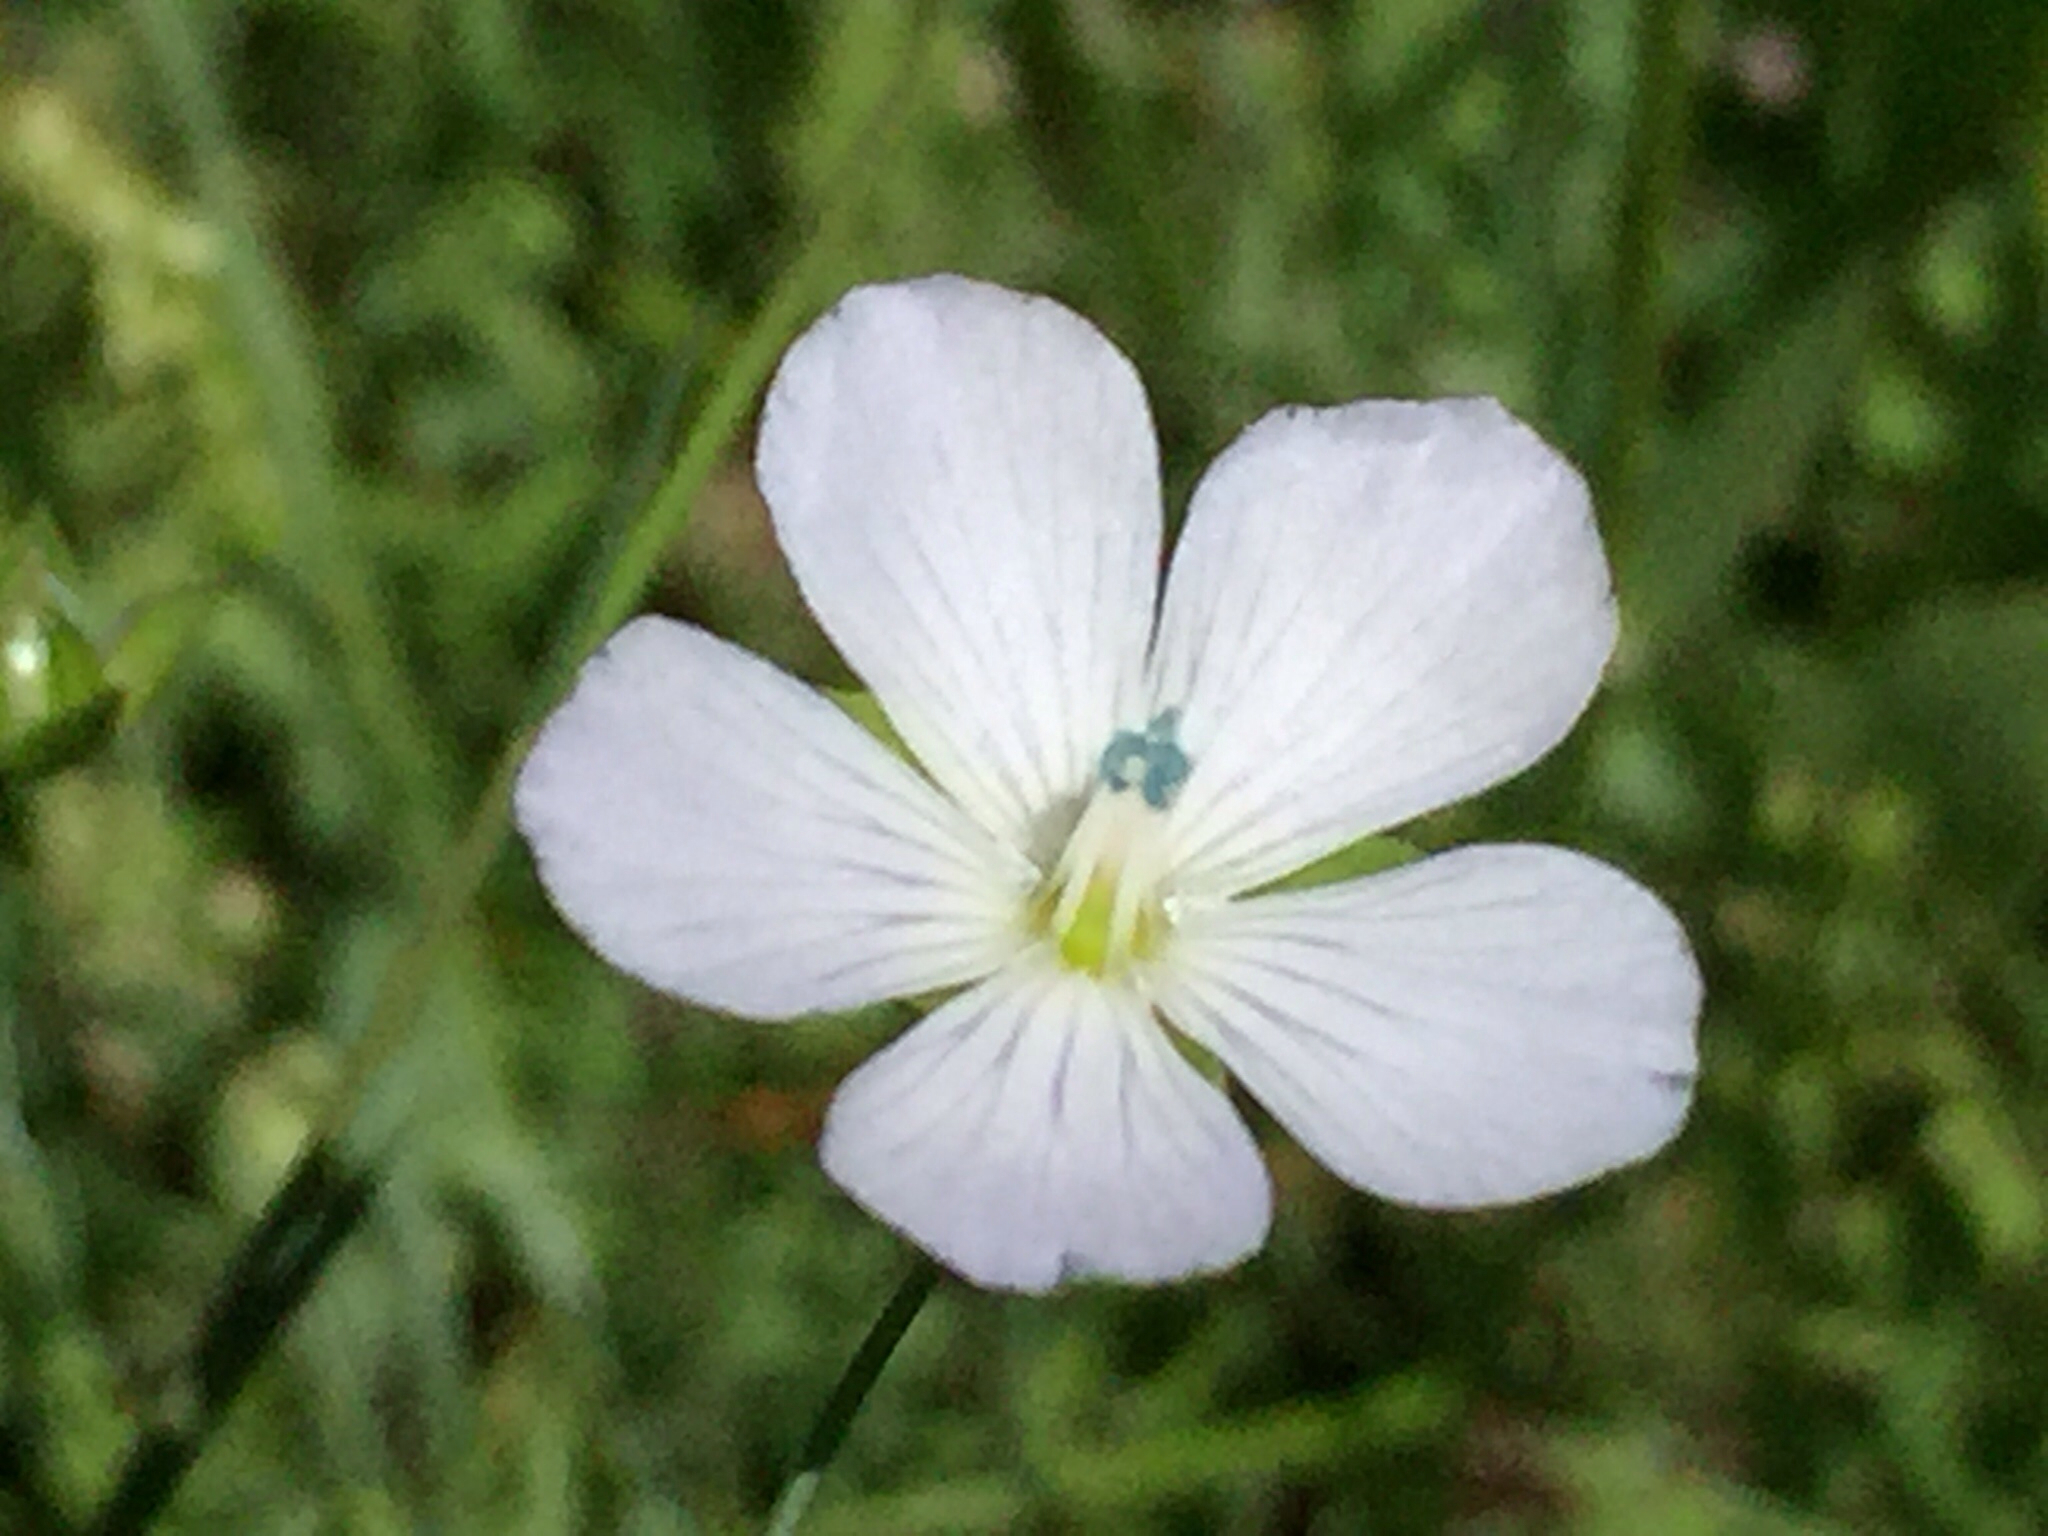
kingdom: Plantae
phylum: Tracheophyta
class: Magnoliopsida
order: Malpighiales
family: Linaceae
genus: Linum
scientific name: Linum bienne
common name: Pale flax
